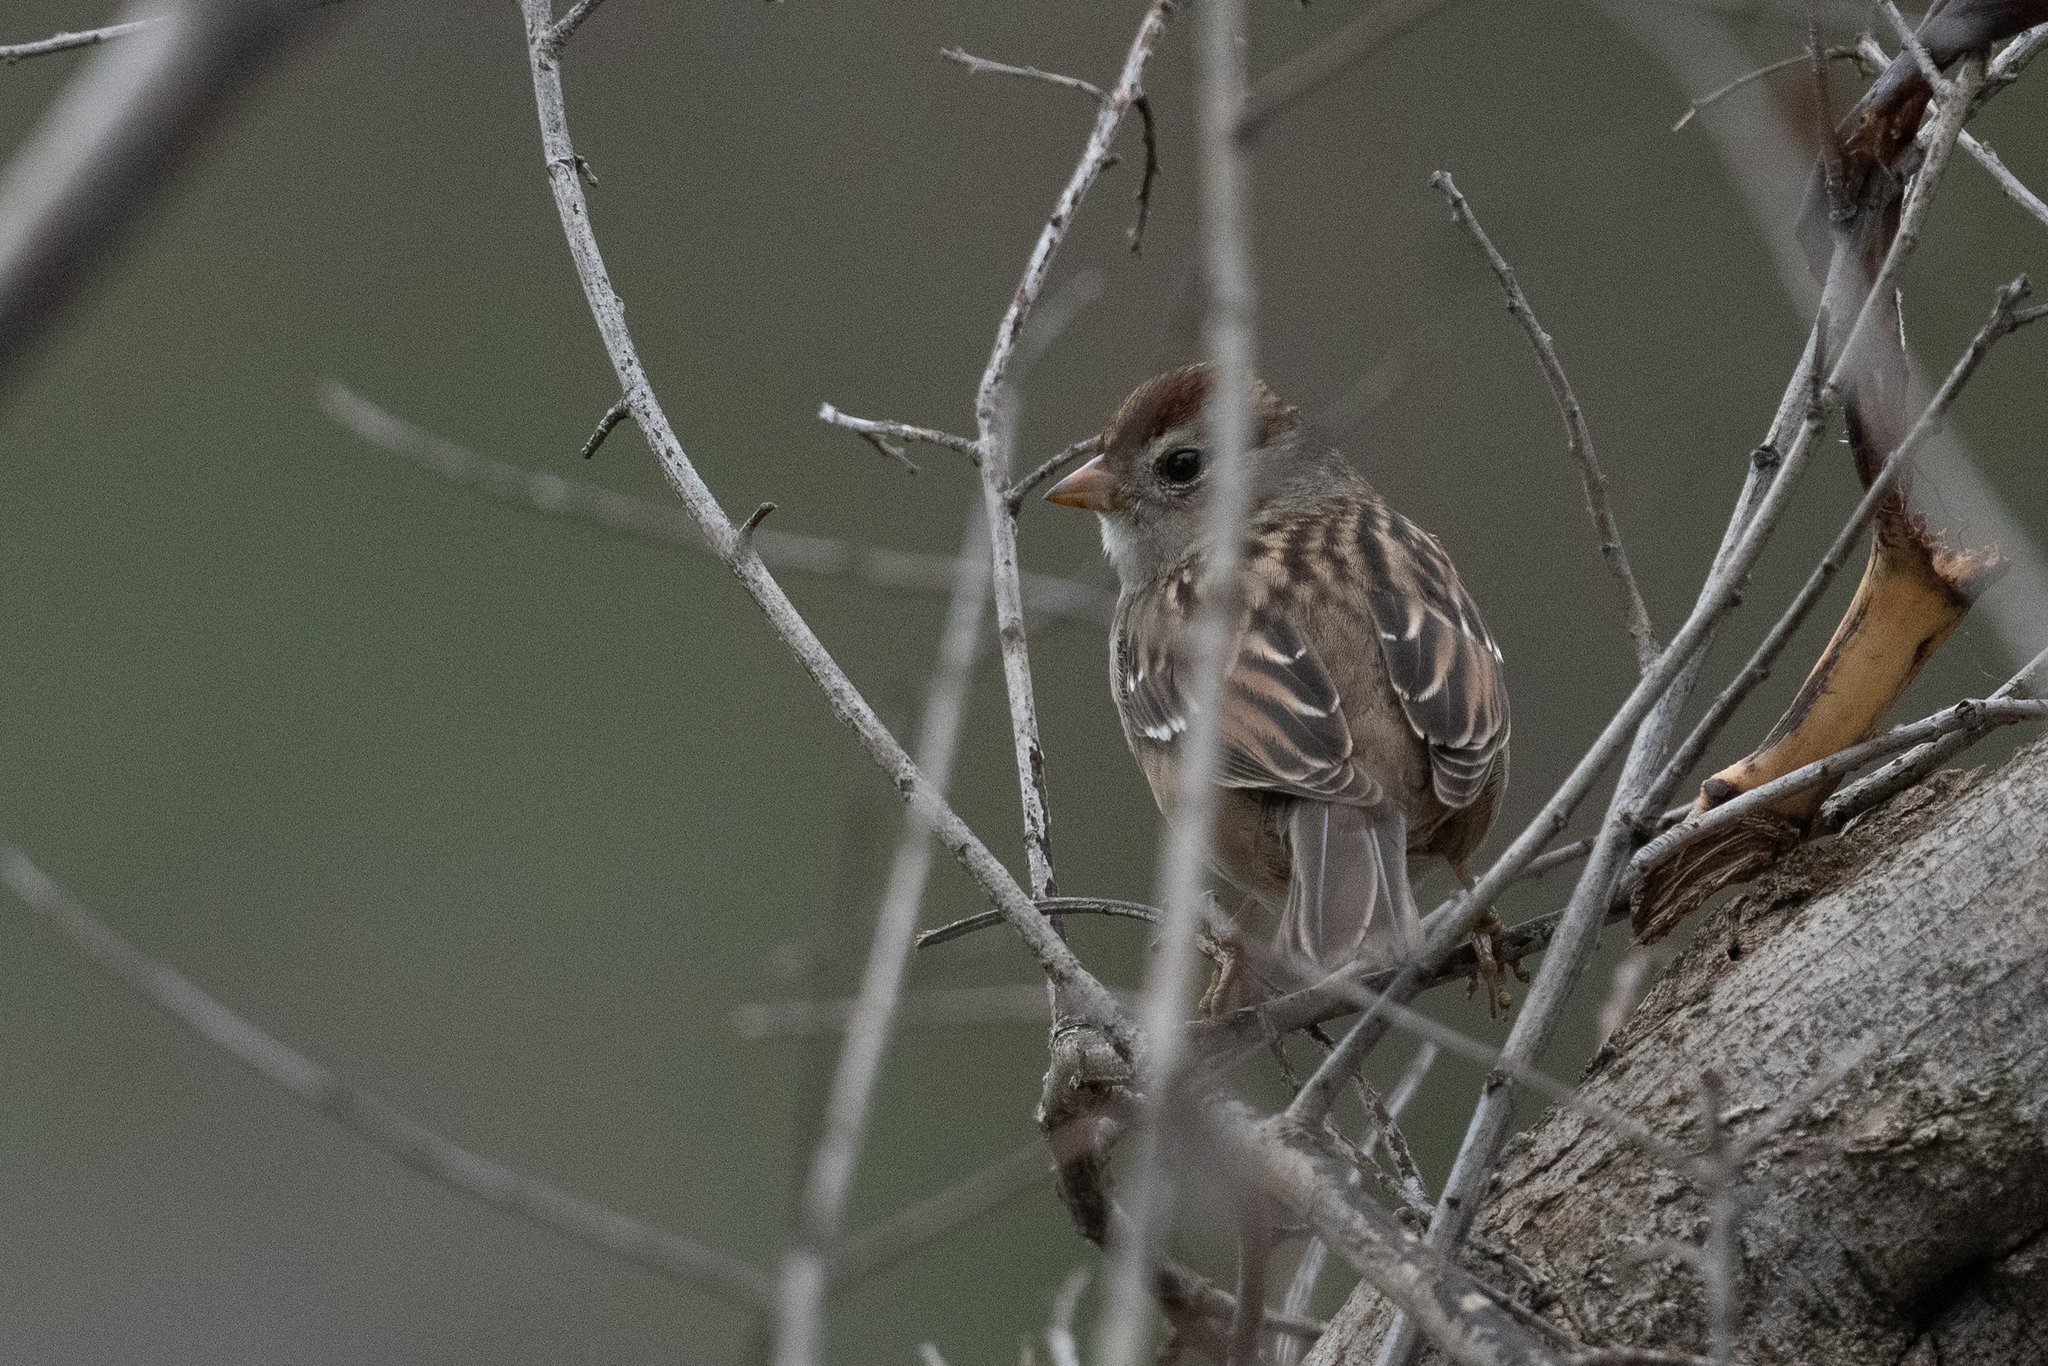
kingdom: Animalia
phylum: Chordata
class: Aves
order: Passeriformes
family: Passerellidae
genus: Zonotrichia
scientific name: Zonotrichia leucophrys
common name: White-crowned sparrow
